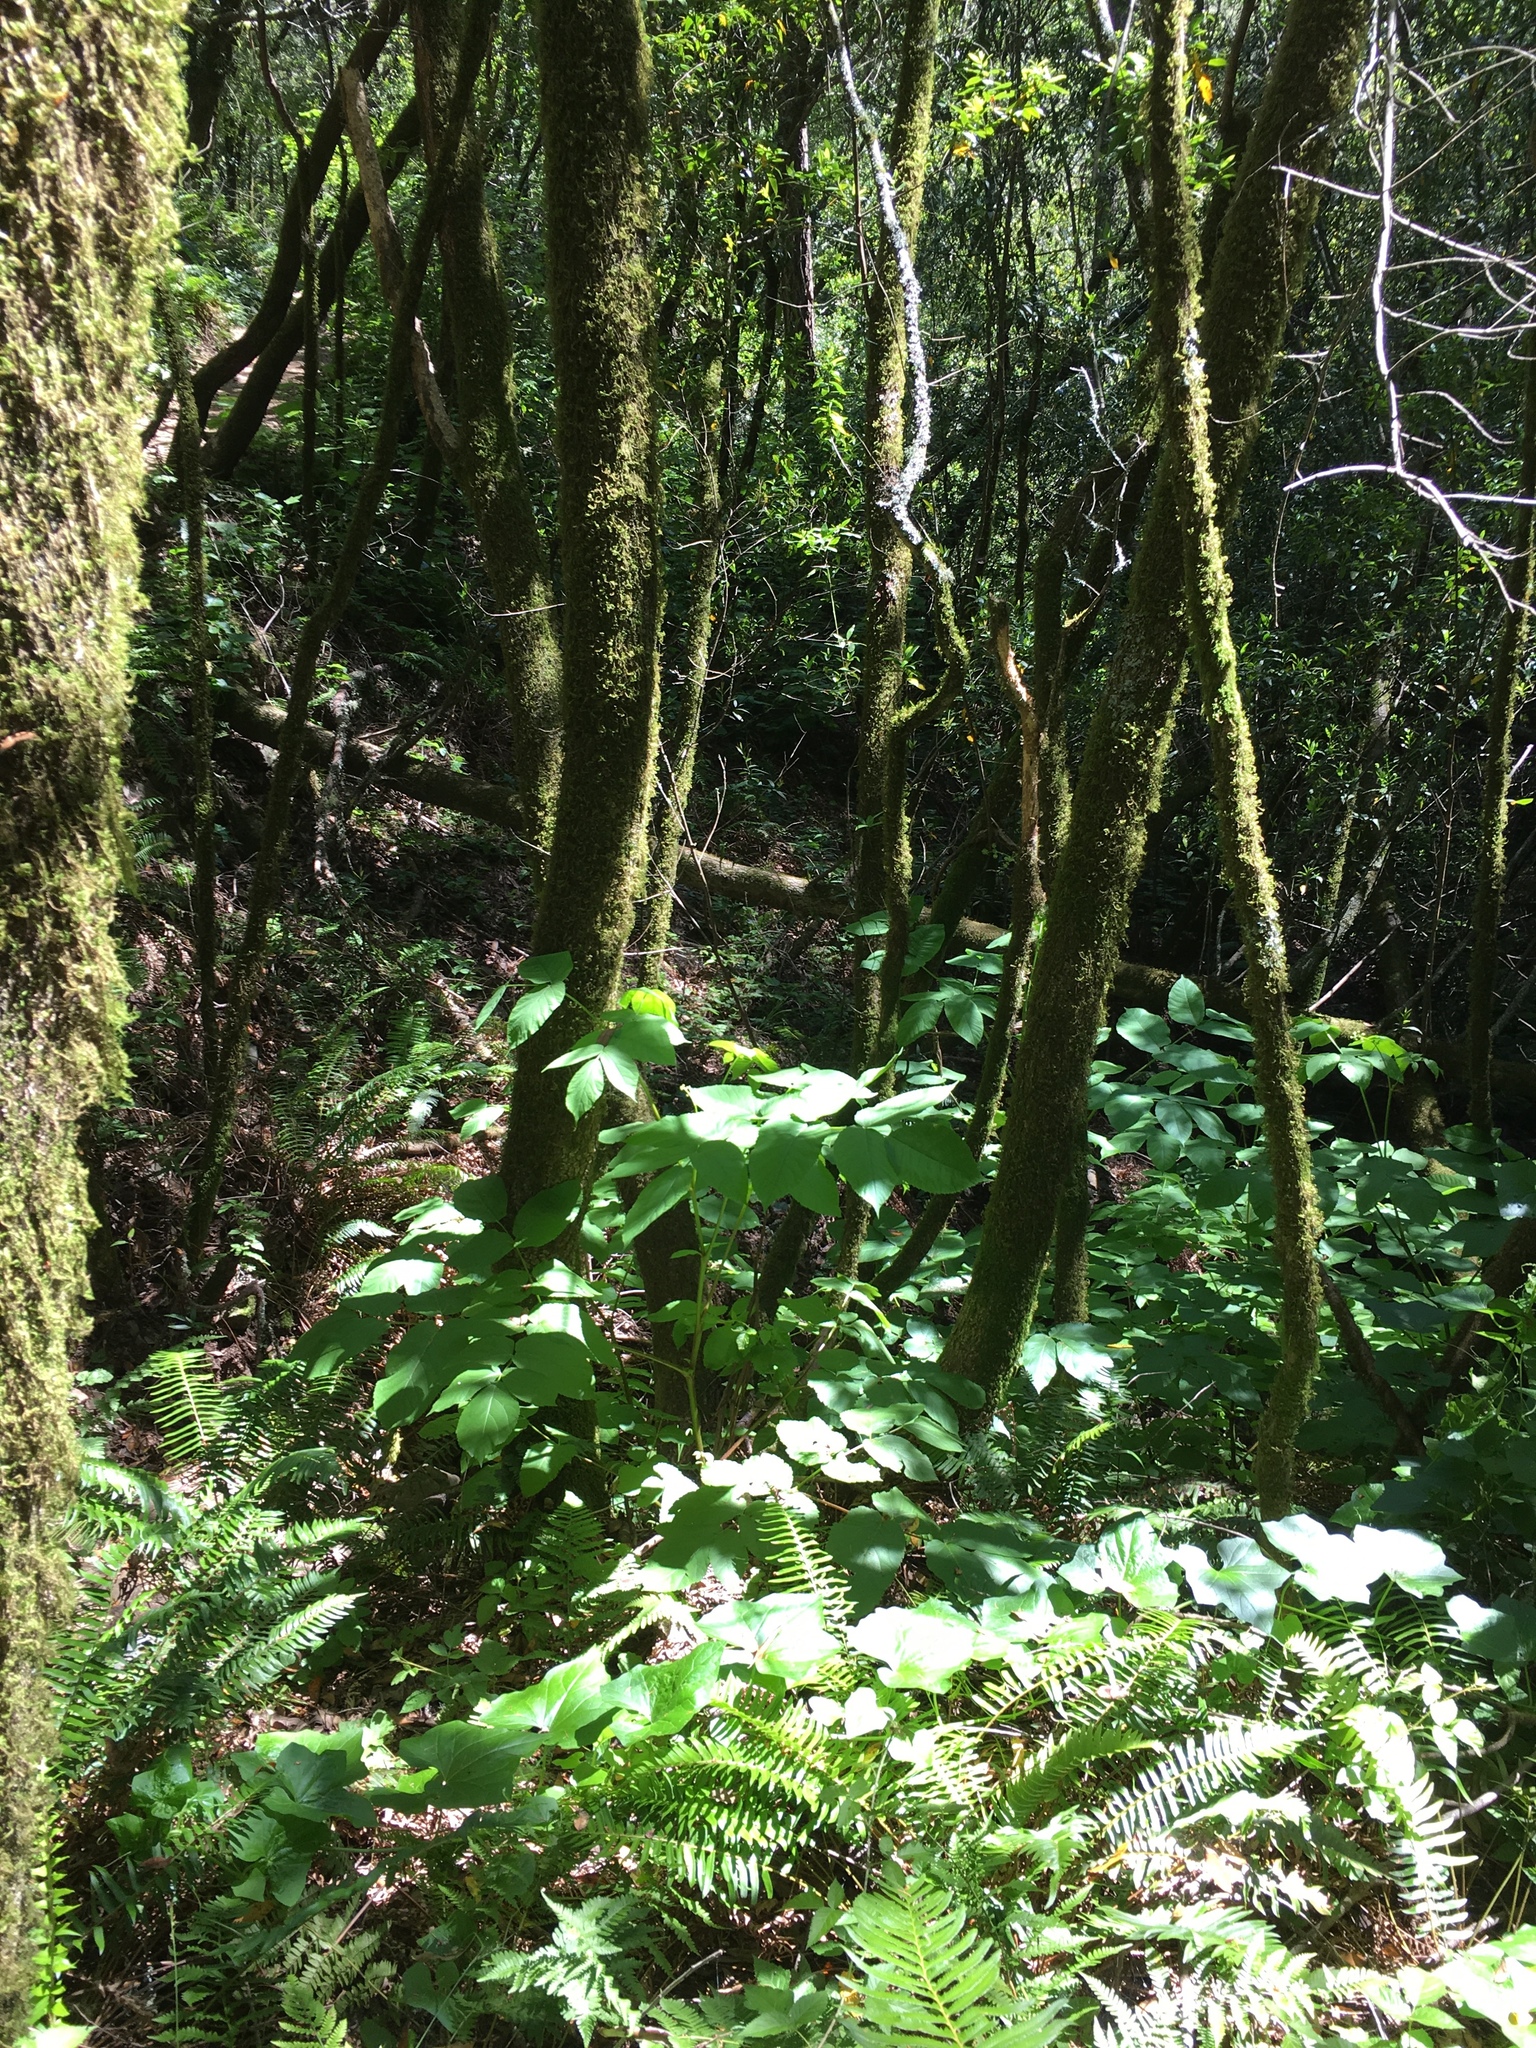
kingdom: Plantae
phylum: Tracheophyta
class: Magnoliopsida
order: Apiales
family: Araliaceae
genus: Aralia
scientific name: Aralia californica
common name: California-ginseng
